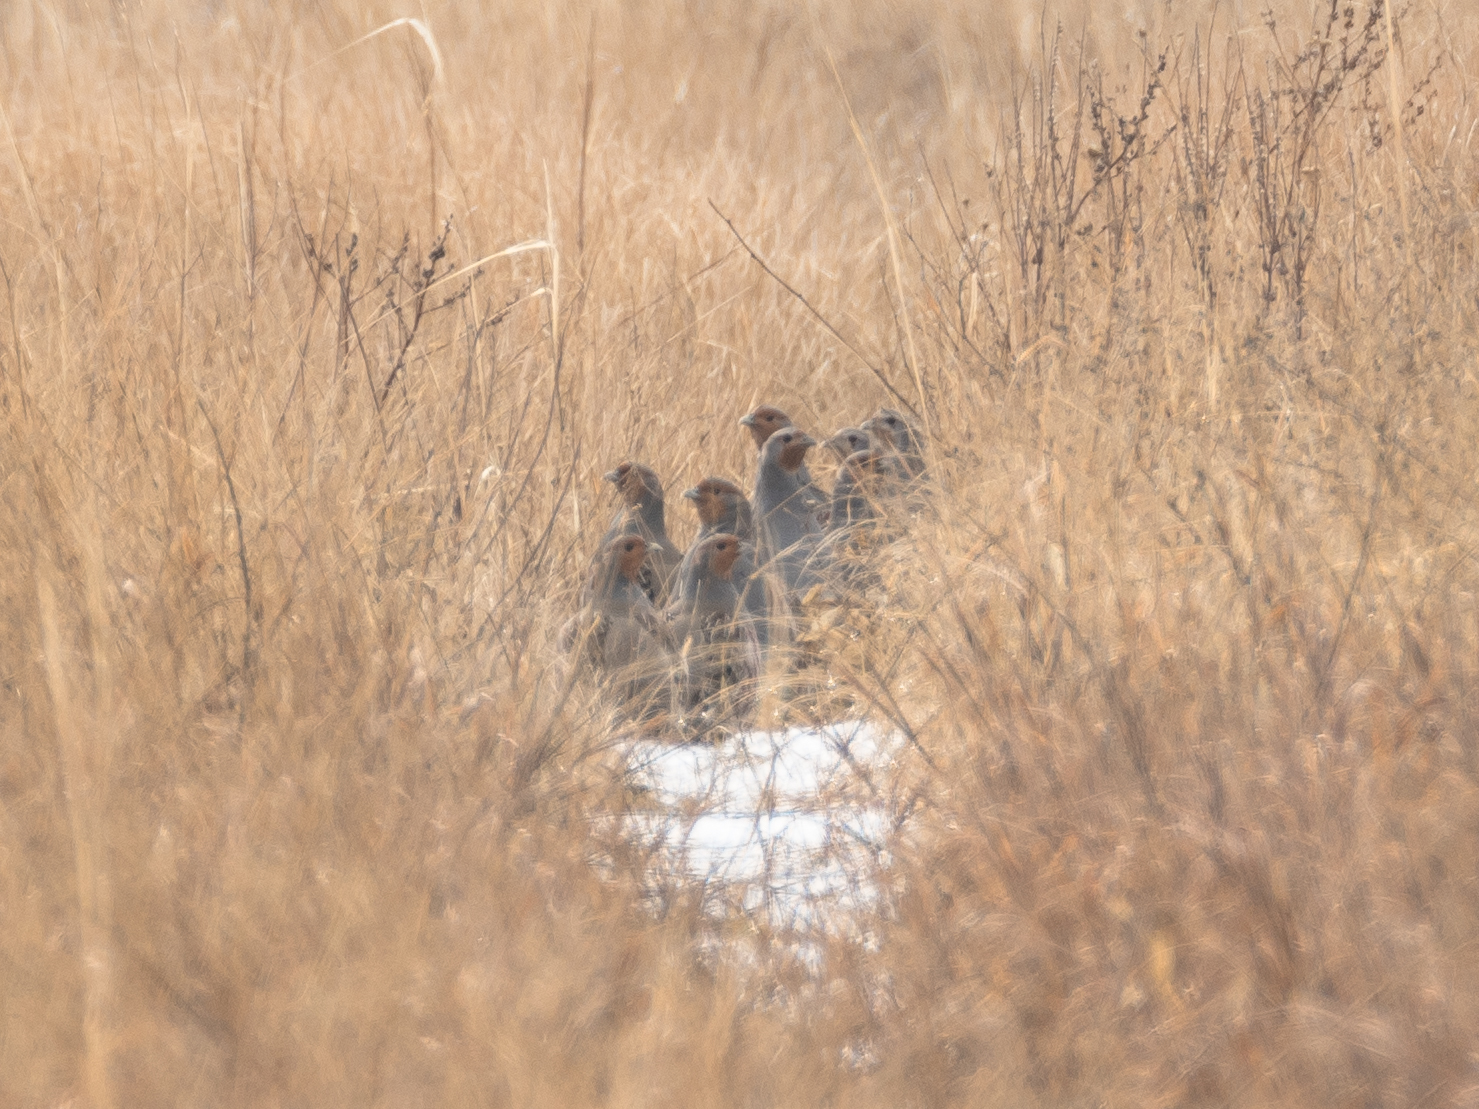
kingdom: Animalia
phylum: Chordata
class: Aves
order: Galliformes
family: Phasianidae
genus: Perdix
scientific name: Perdix perdix
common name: Grey partridge
